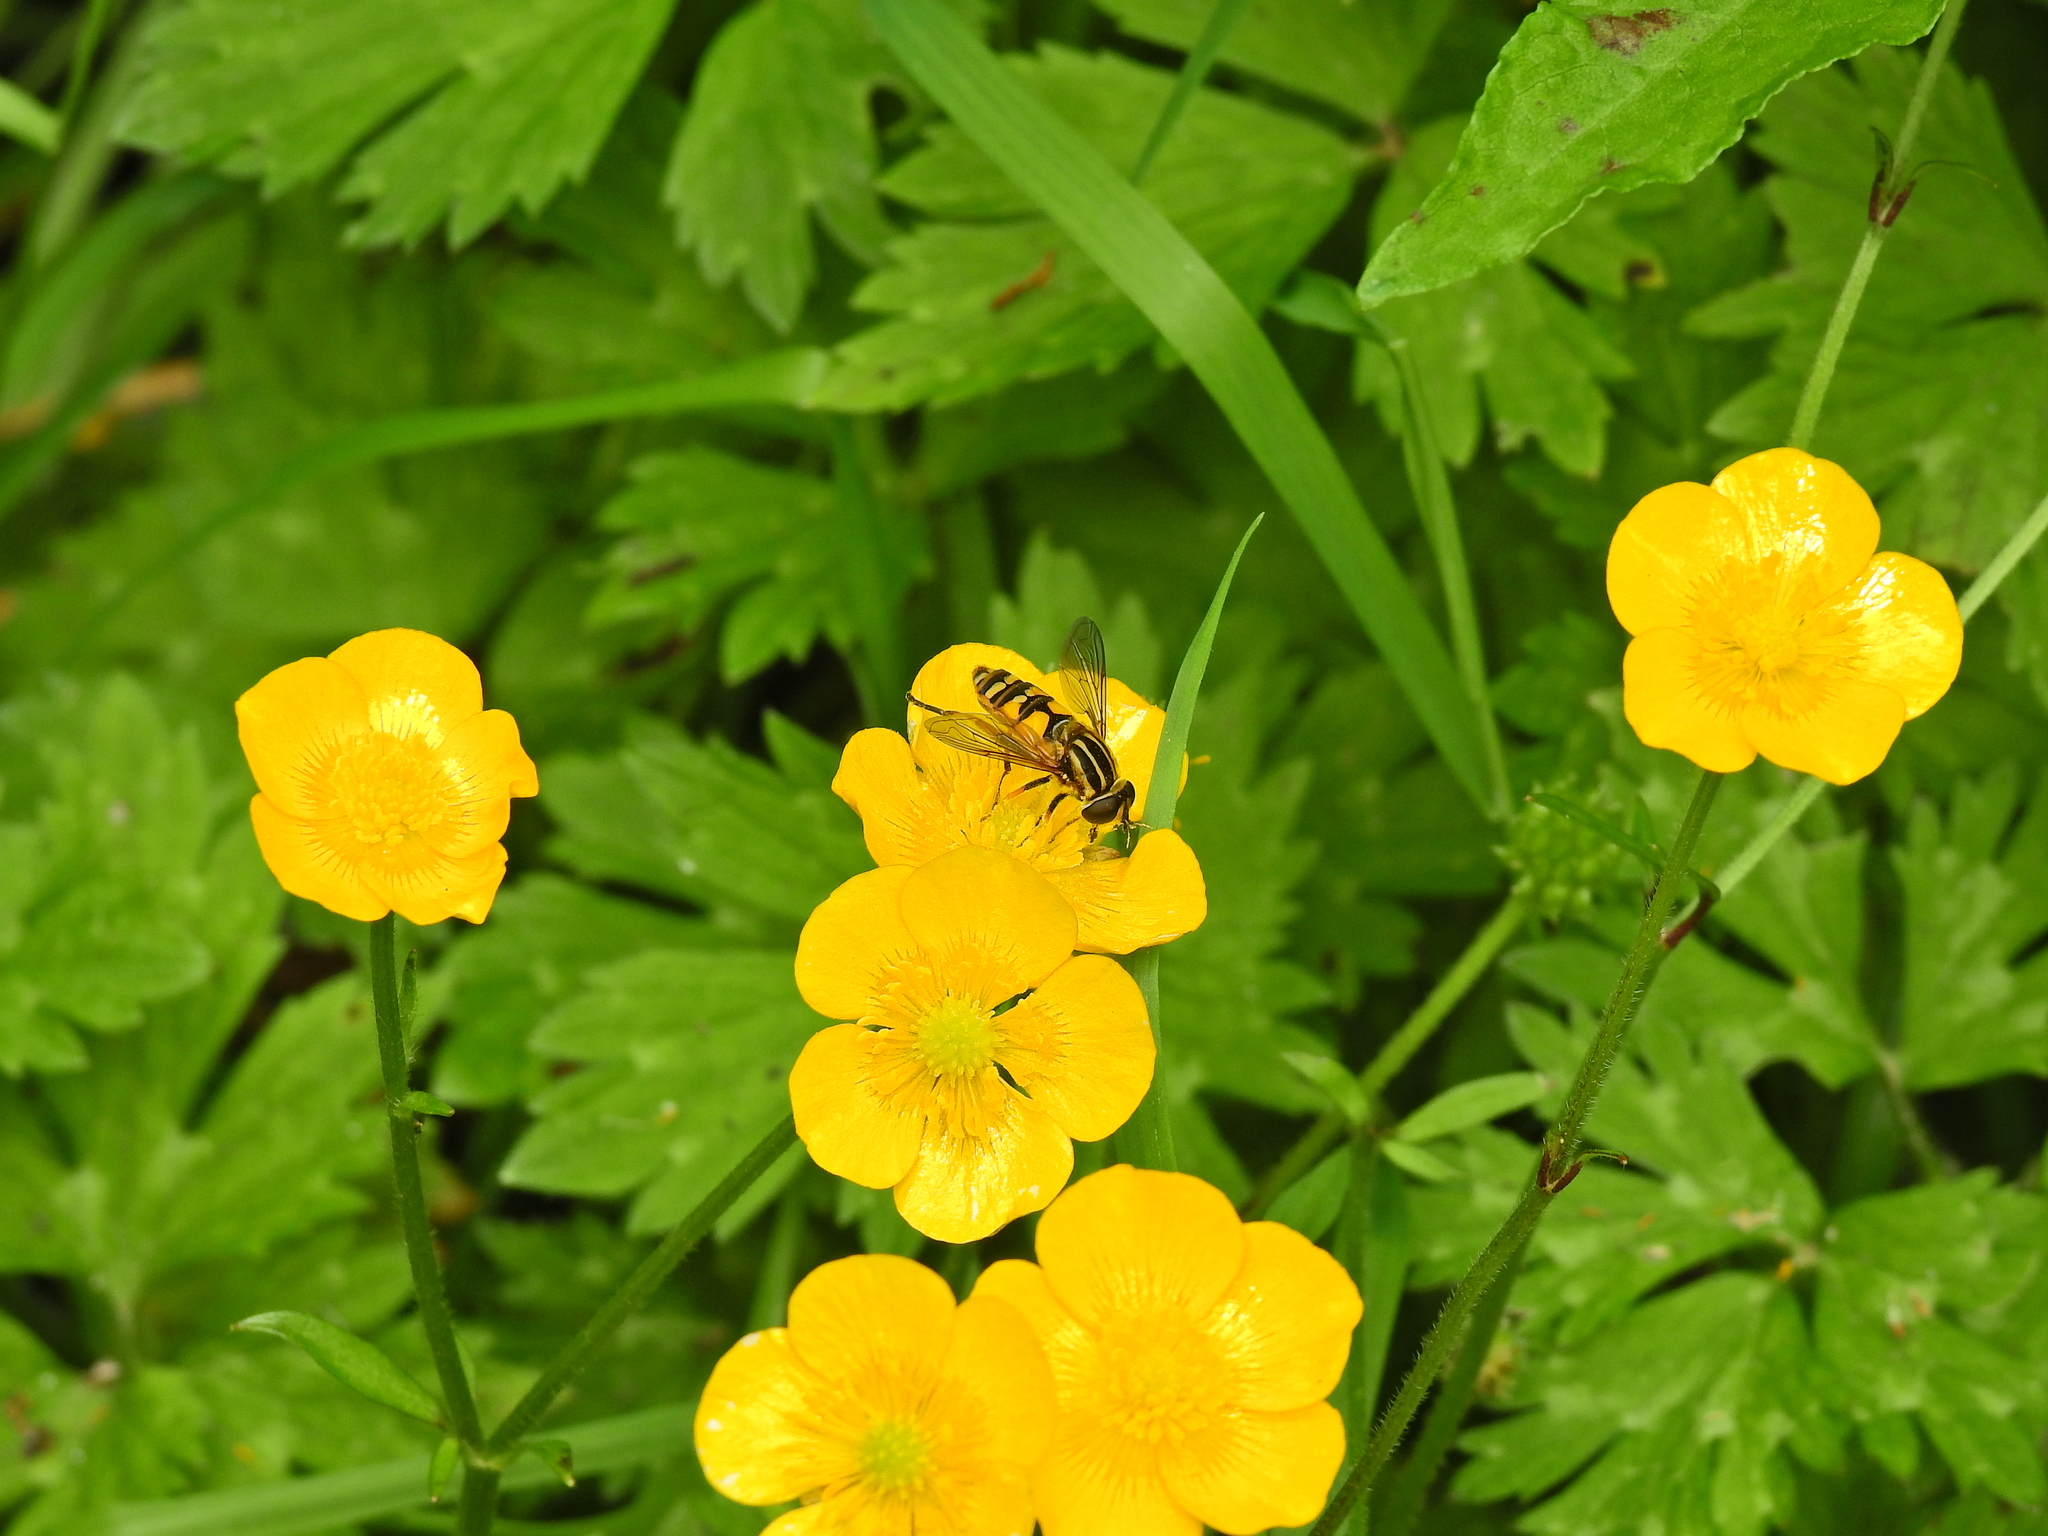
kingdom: Animalia
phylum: Arthropoda
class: Insecta
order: Diptera
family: Syrphidae
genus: Helophilus
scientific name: Helophilus pendulus
